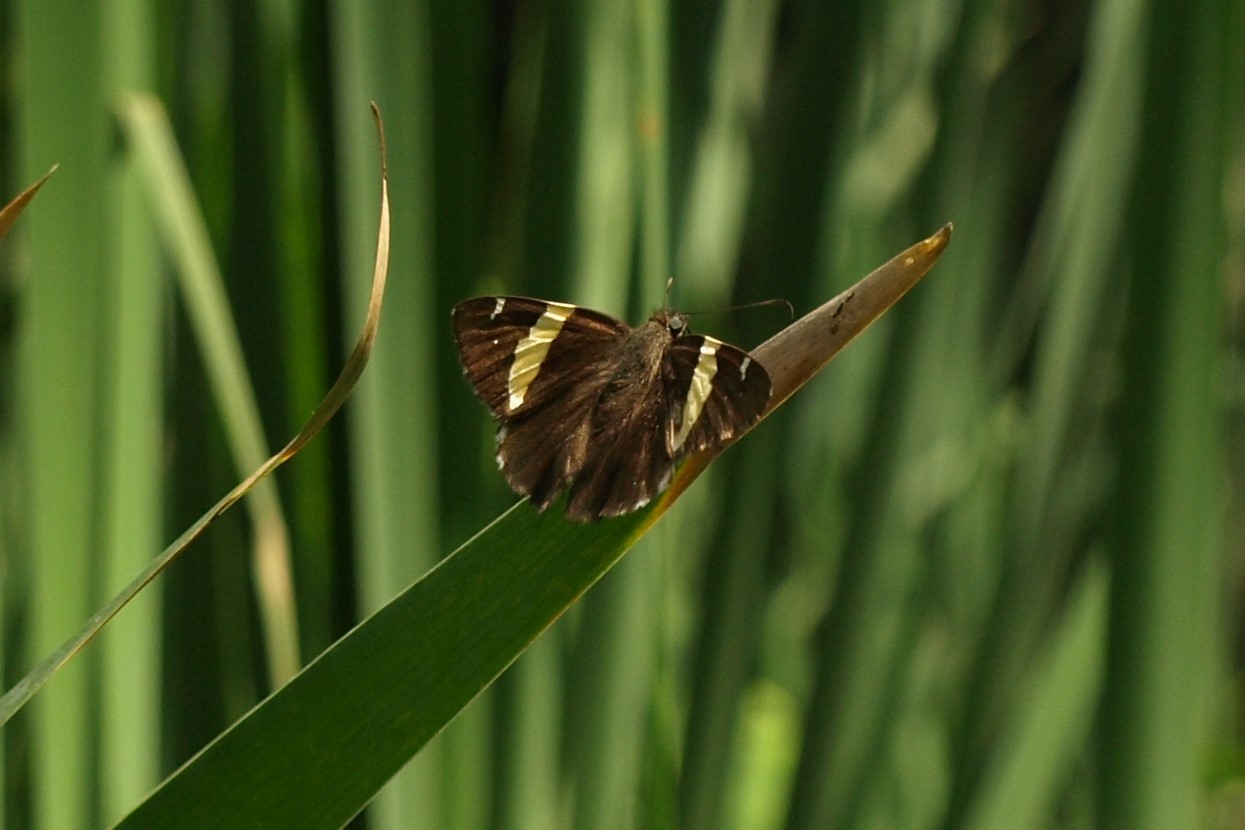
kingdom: Animalia
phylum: Arthropoda
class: Arachnida
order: Scorpiones
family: Bothriuridae
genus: Telegonus
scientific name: Telegonus cellus
